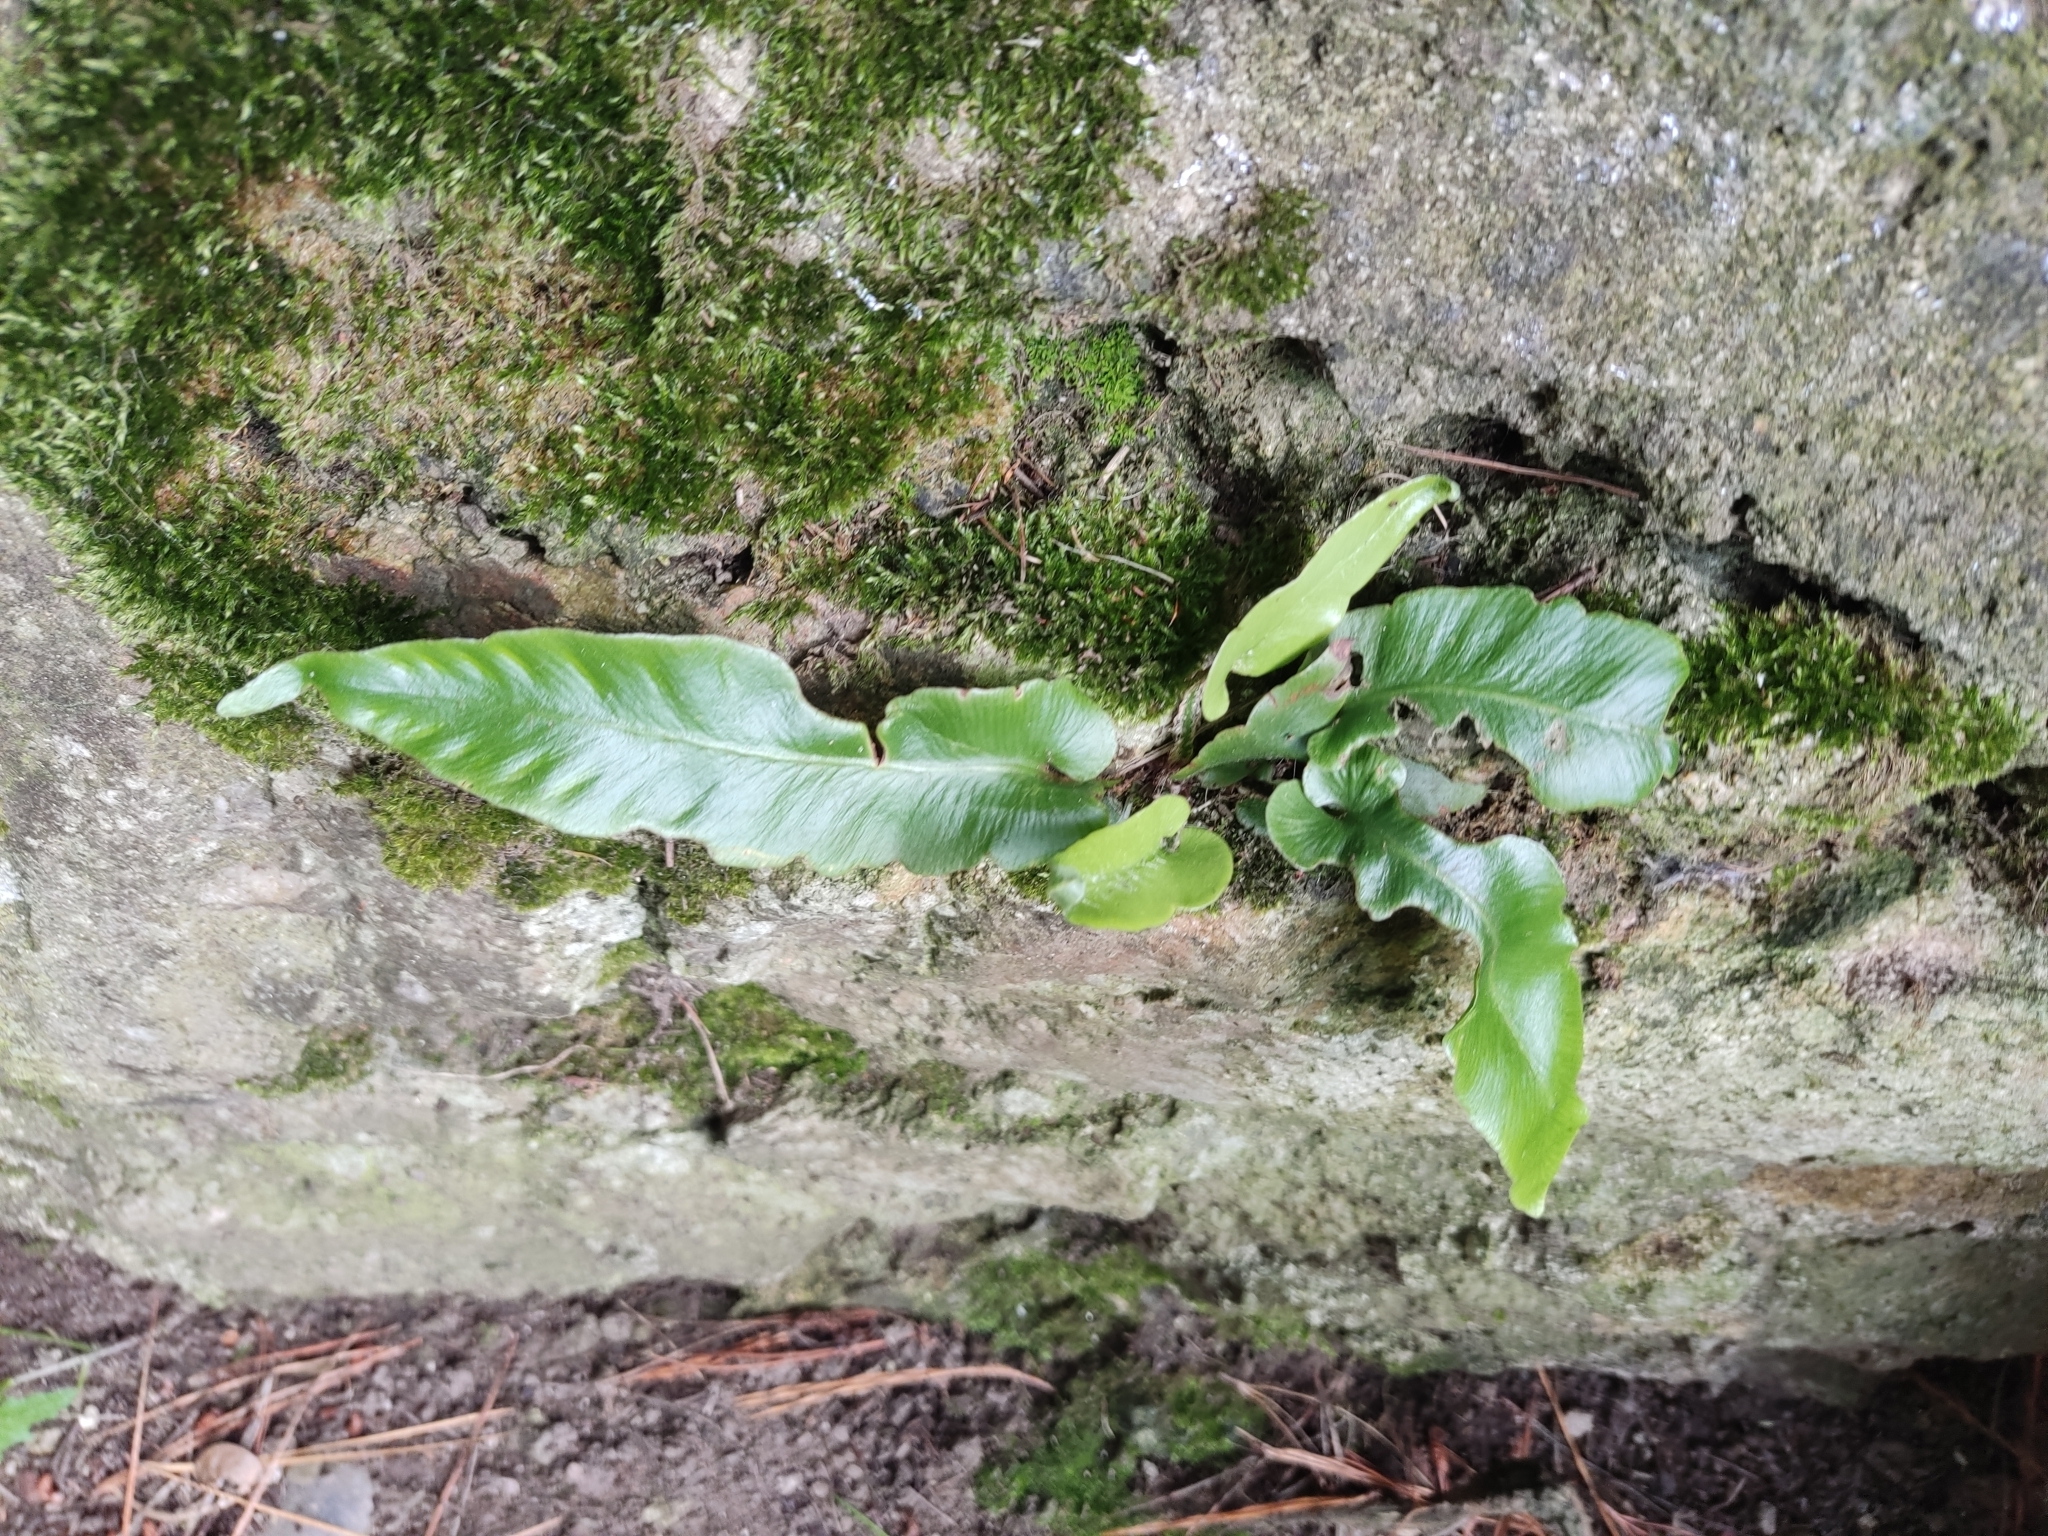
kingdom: Plantae
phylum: Tracheophyta
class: Polypodiopsida
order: Polypodiales
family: Aspleniaceae
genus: Asplenium
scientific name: Asplenium scolopendrium
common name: Hart's-tongue fern
